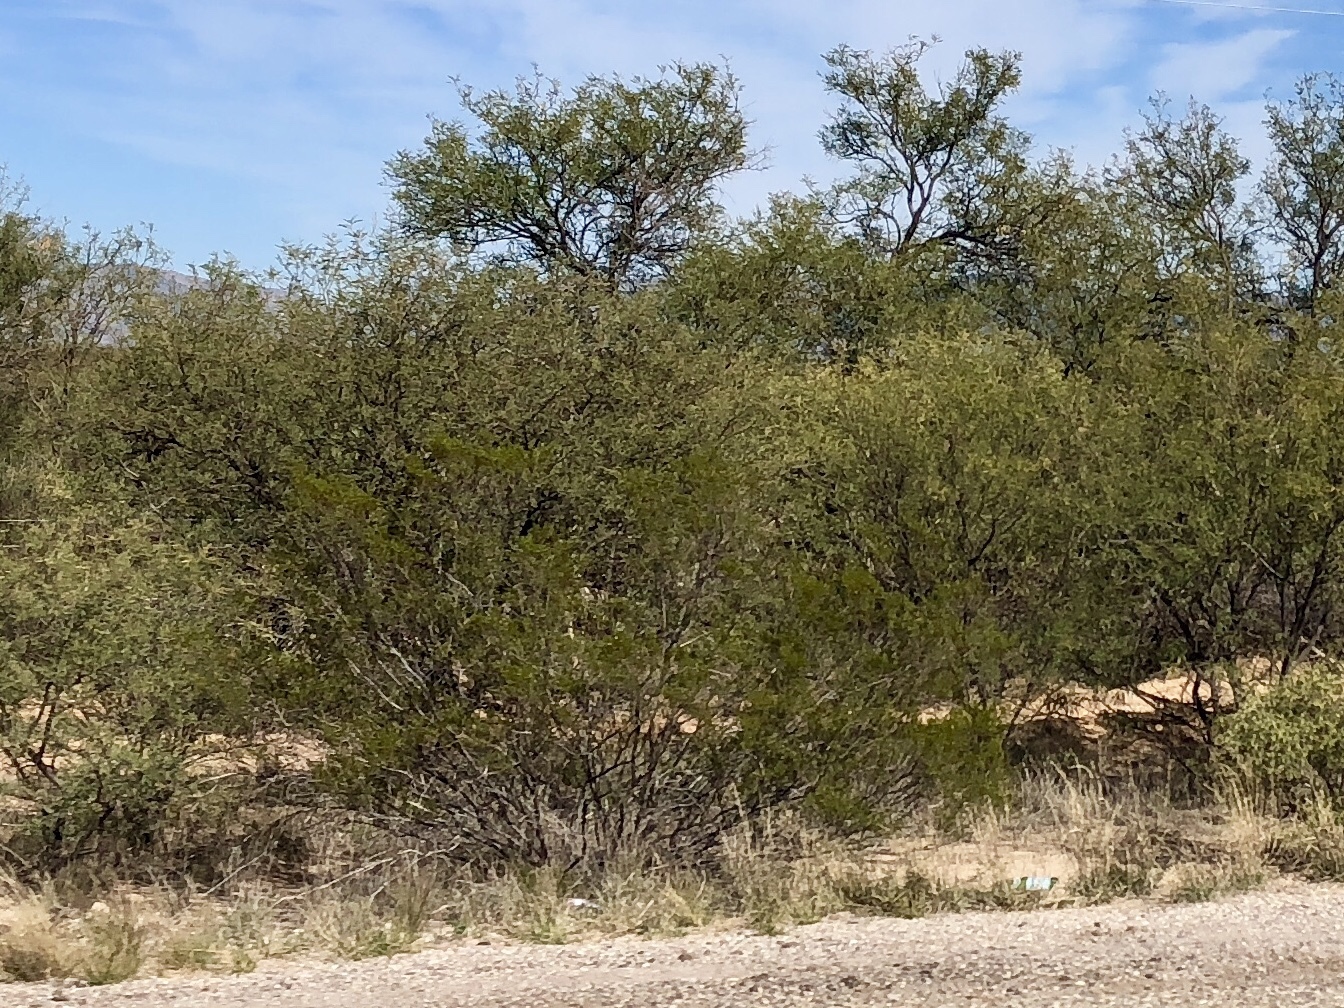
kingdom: Plantae
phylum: Tracheophyta
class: Magnoliopsida
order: Zygophyllales
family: Zygophyllaceae
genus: Larrea
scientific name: Larrea tridentata
